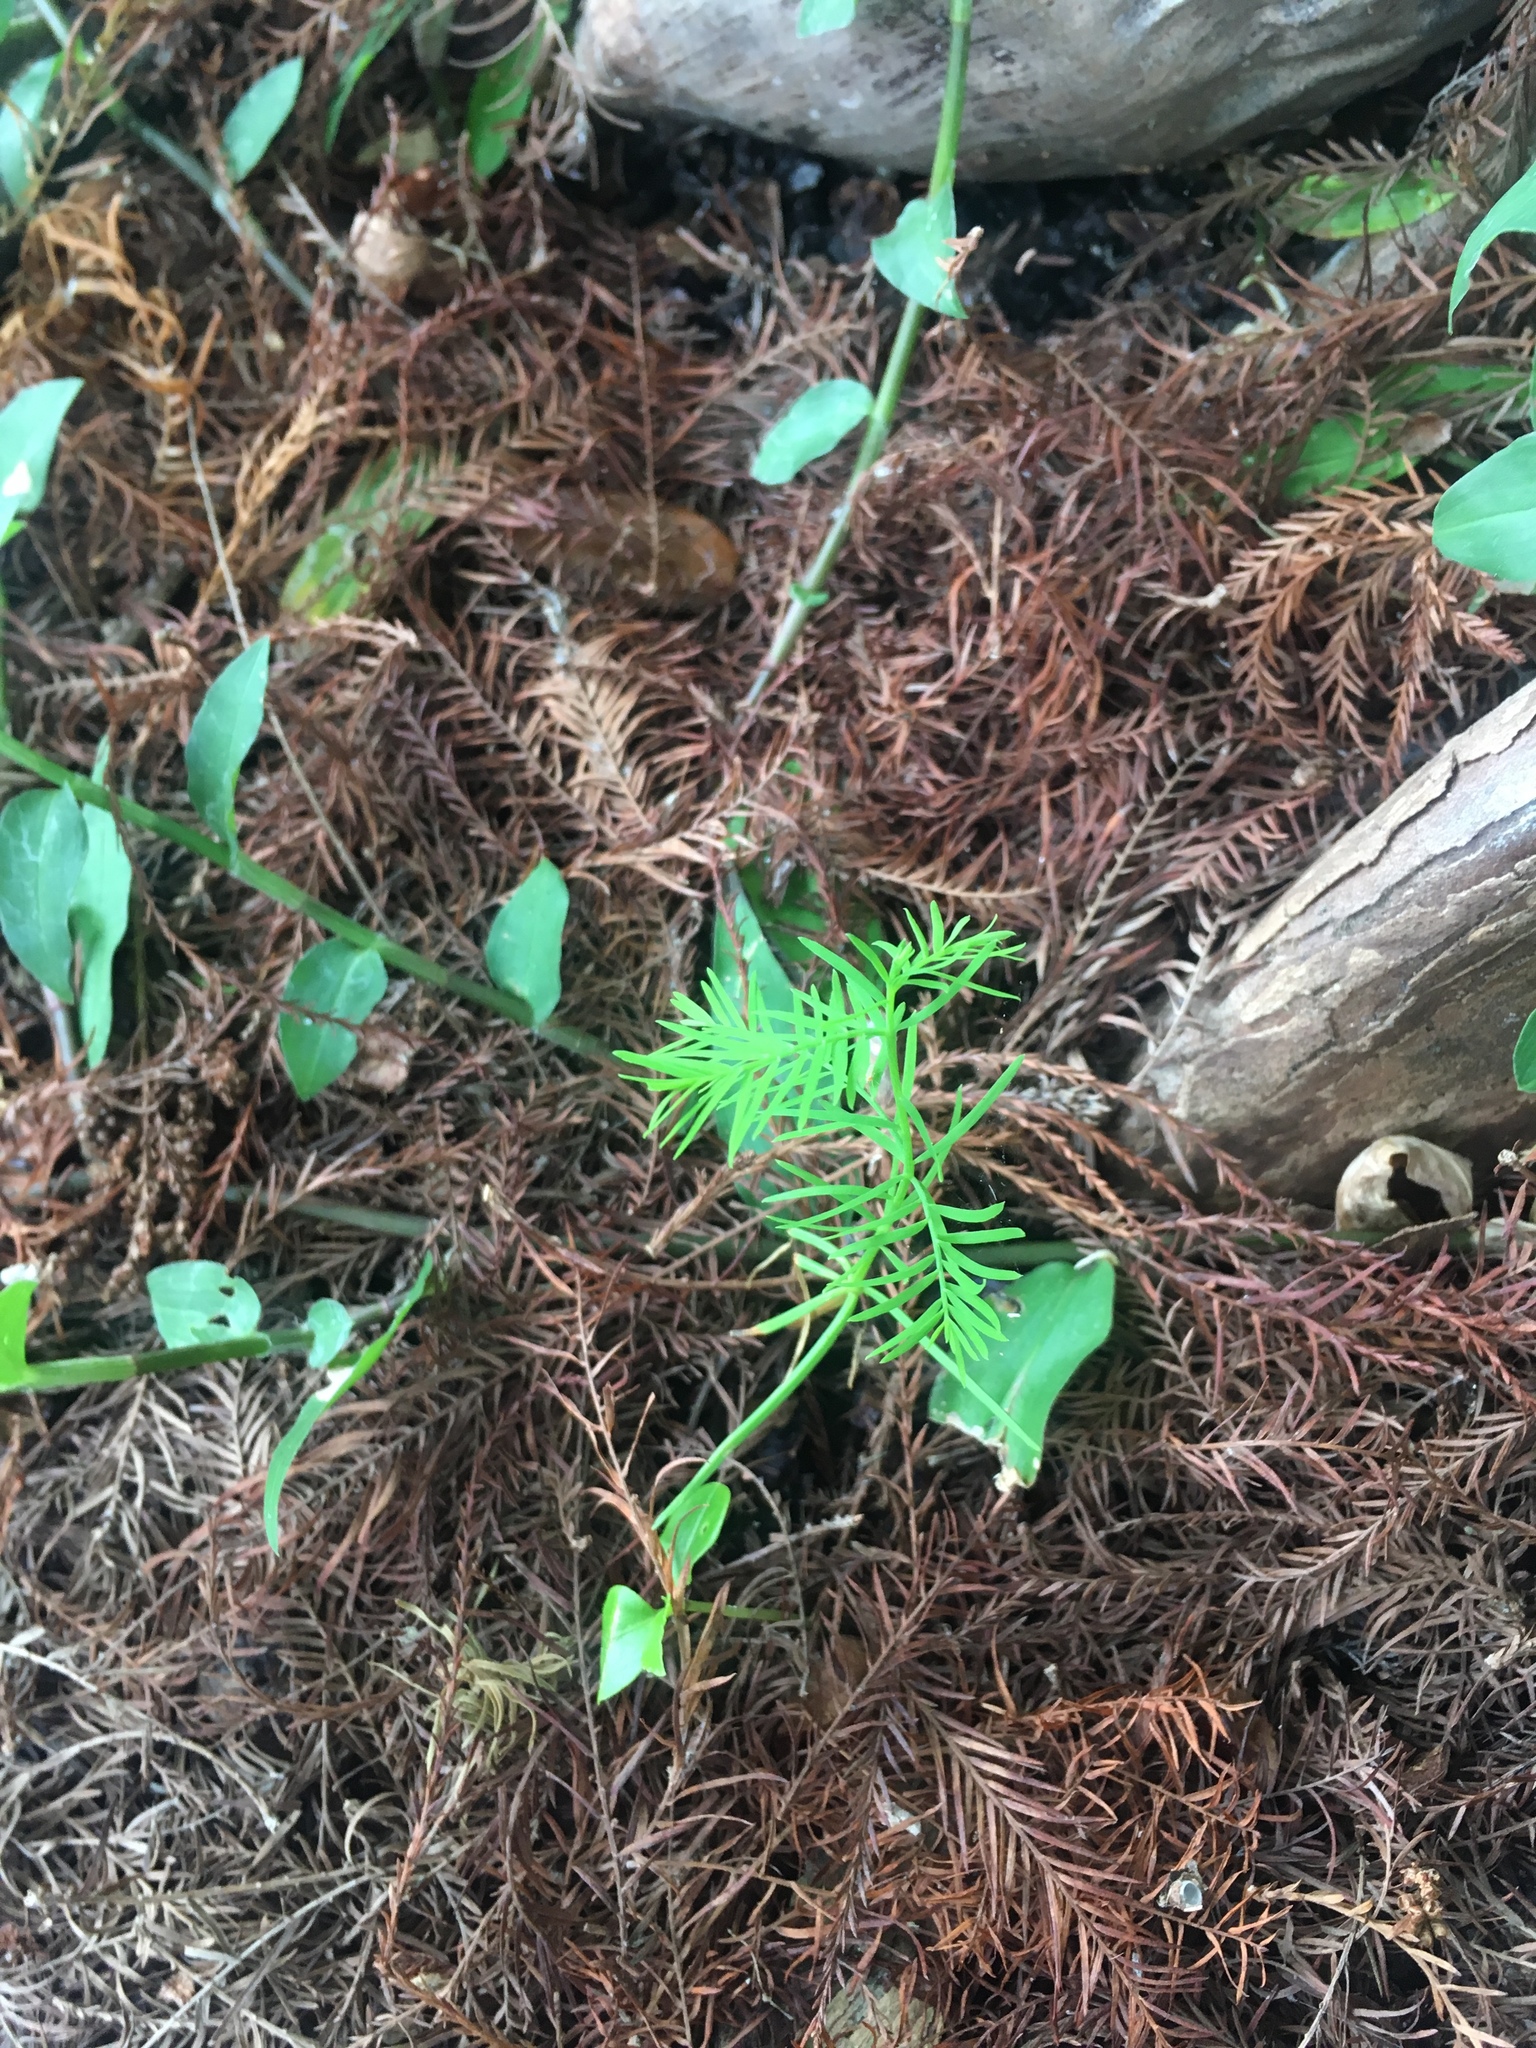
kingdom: Plantae
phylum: Tracheophyta
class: Pinopsida
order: Pinales
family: Cupressaceae
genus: Taxodium
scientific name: Taxodium distichum
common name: Bald cypress
